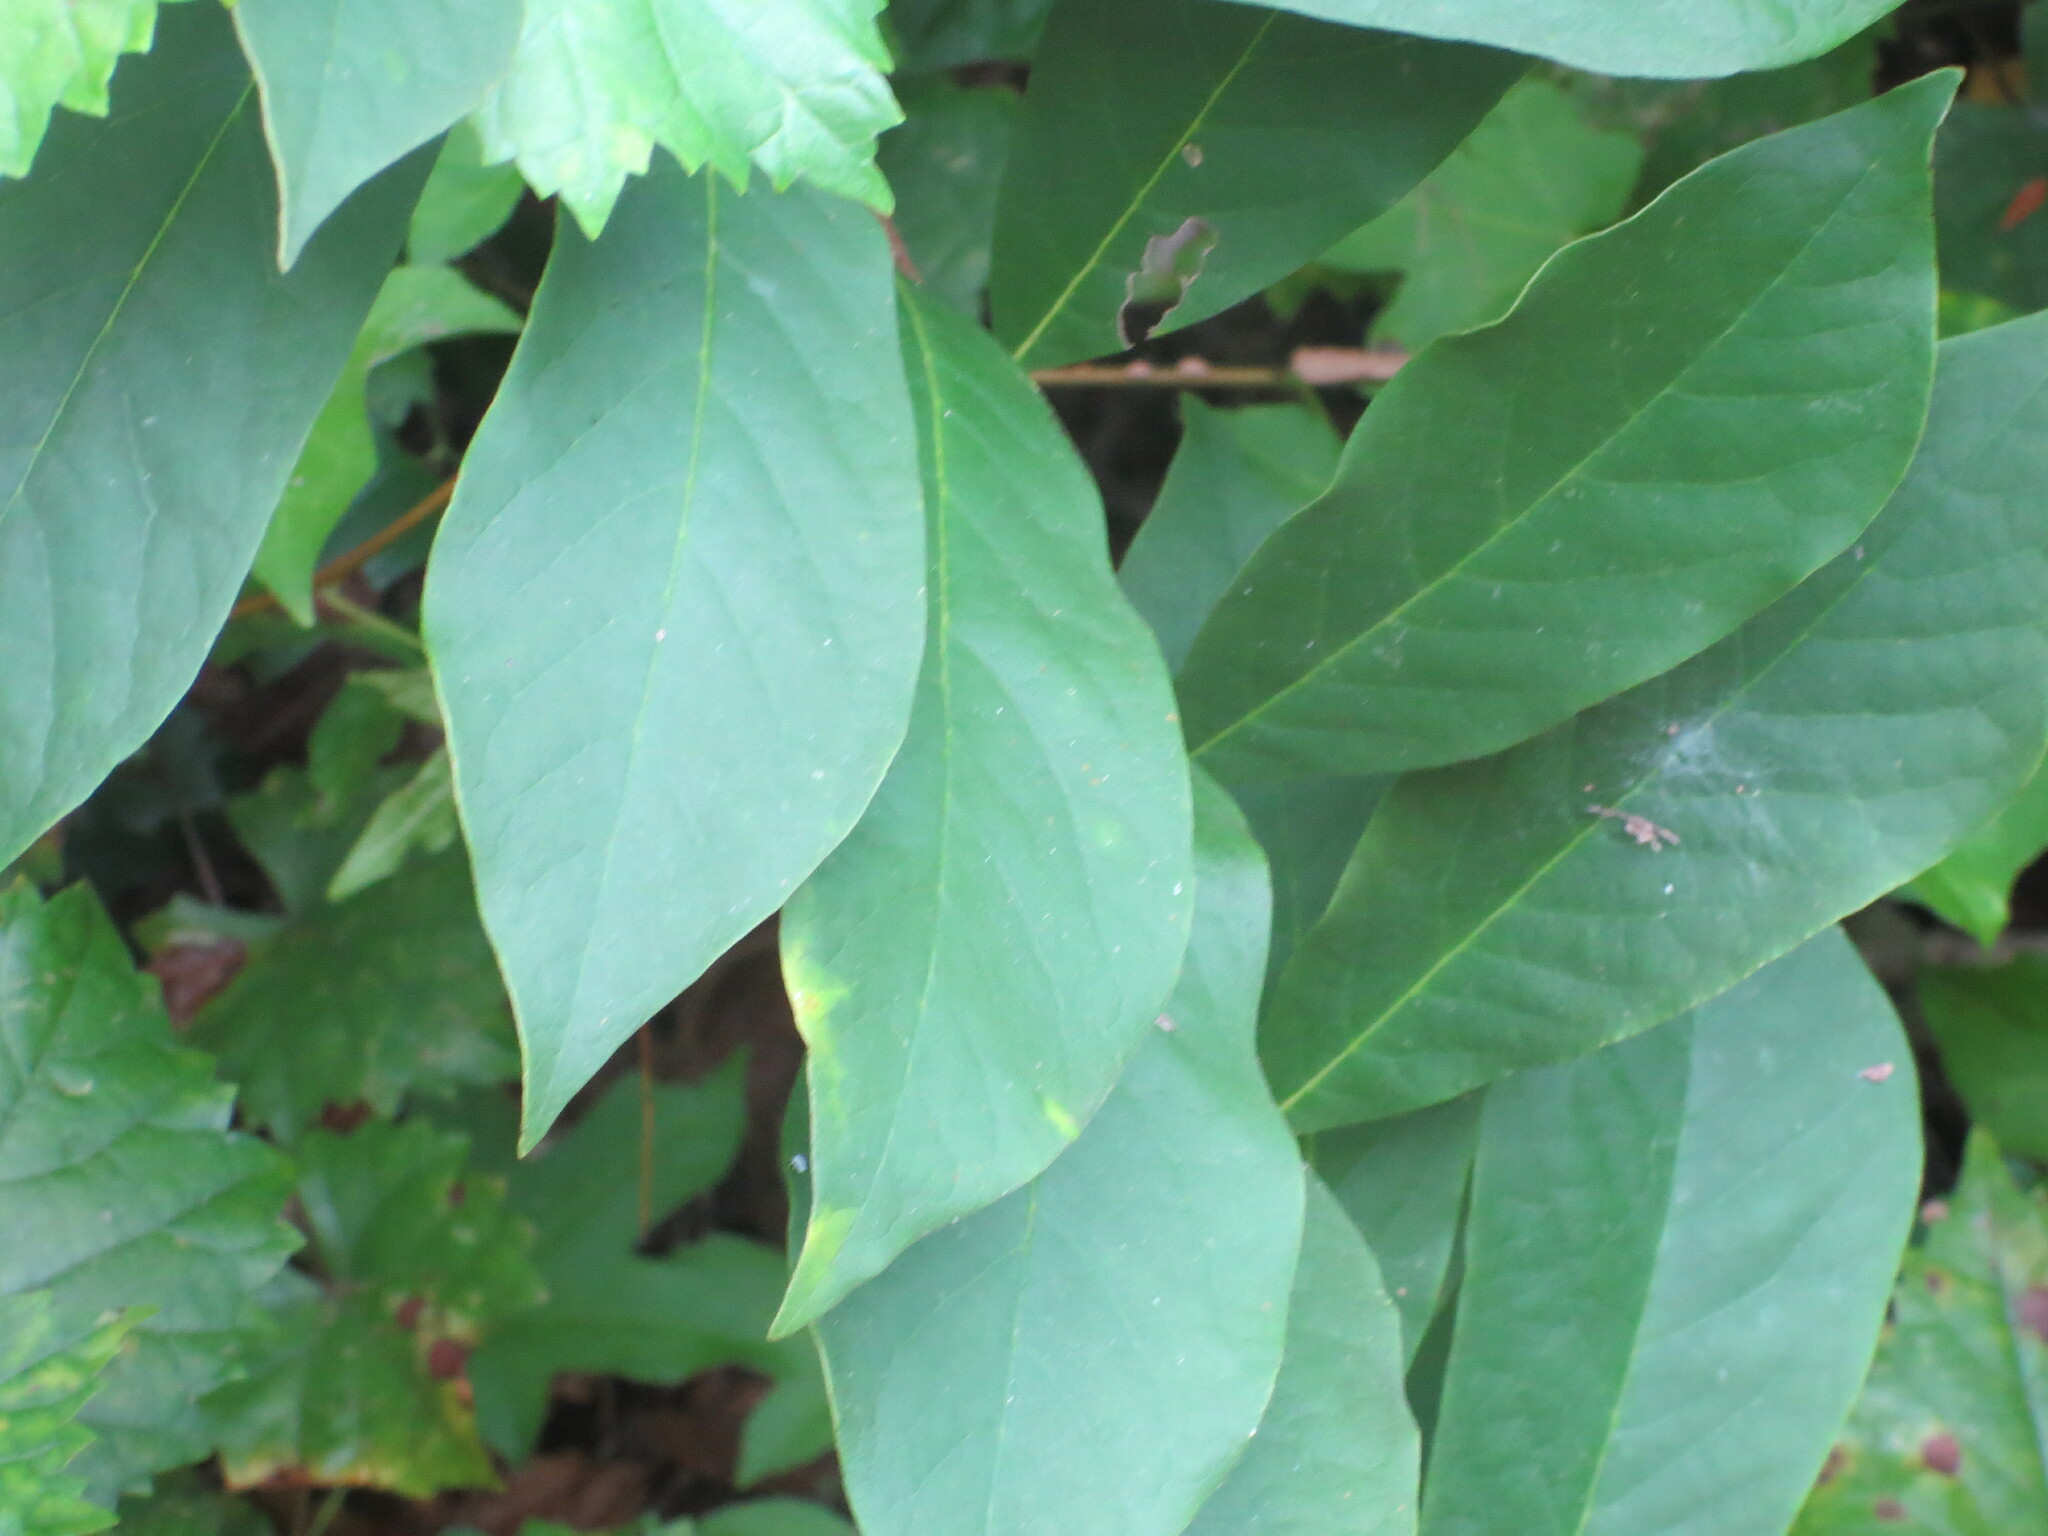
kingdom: Plantae
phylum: Tracheophyta
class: Magnoliopsida
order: Magnoliales
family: Annonaceae
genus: Asimina
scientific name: Asimina parviflora
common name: Dwarf pawpaw
